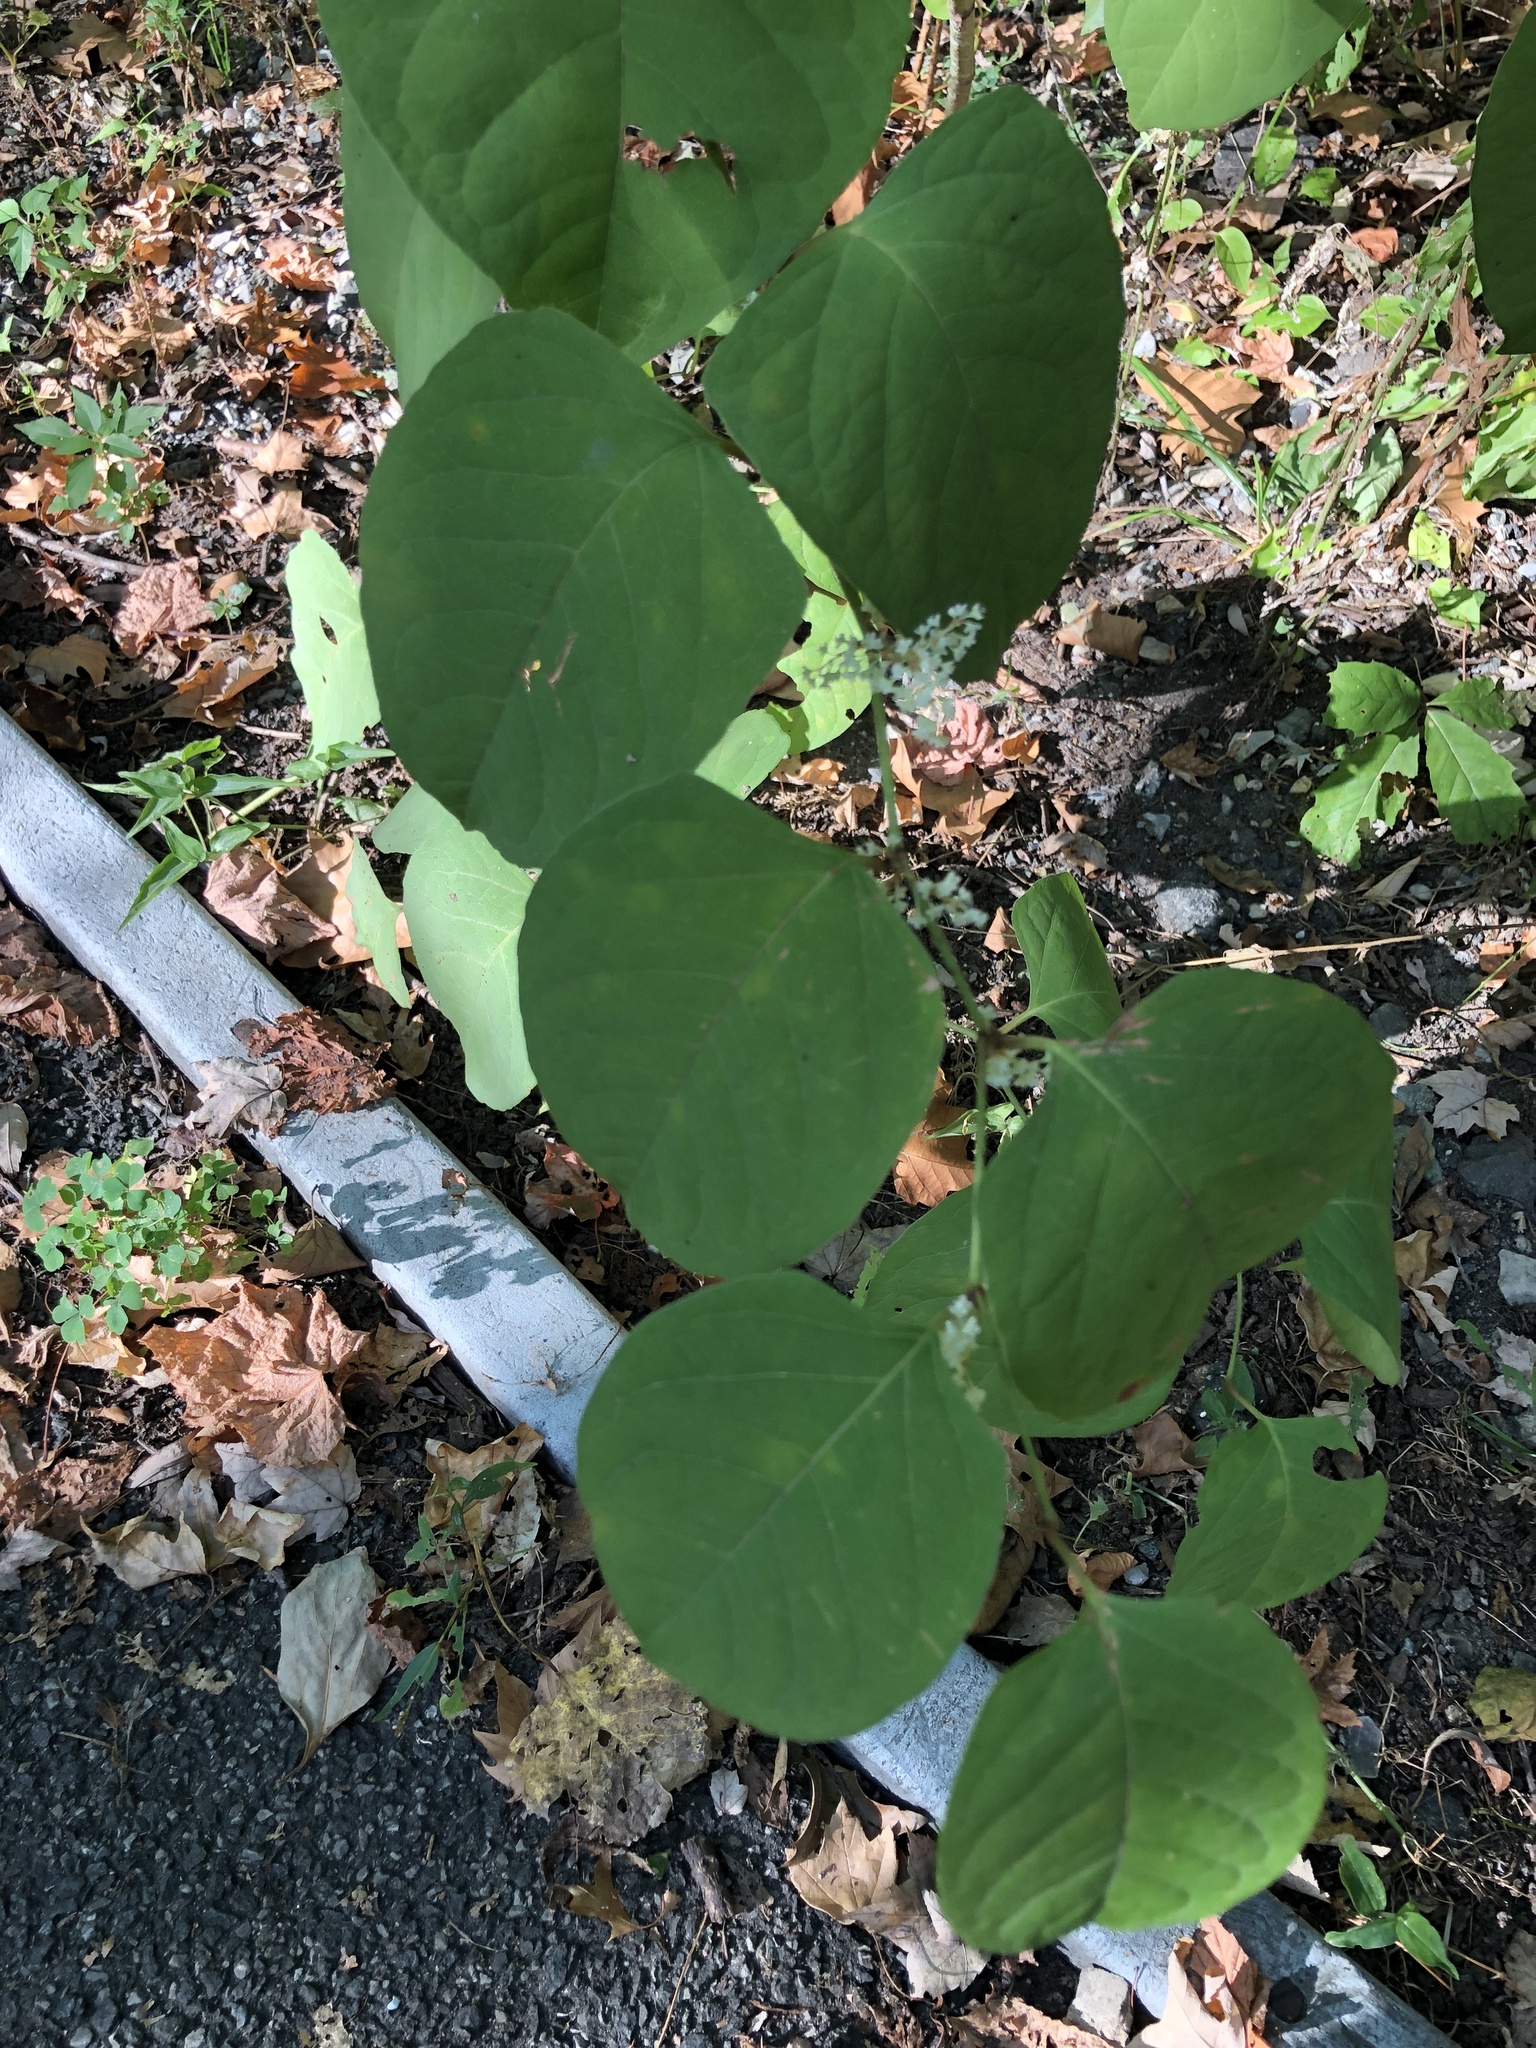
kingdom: Plantae
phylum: Tracheophyta
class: Magnoliopsida
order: Caryophyllales
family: Polygonaceae
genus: Reynoutria
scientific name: Reynoutria japonica
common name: Japanese knotweed
